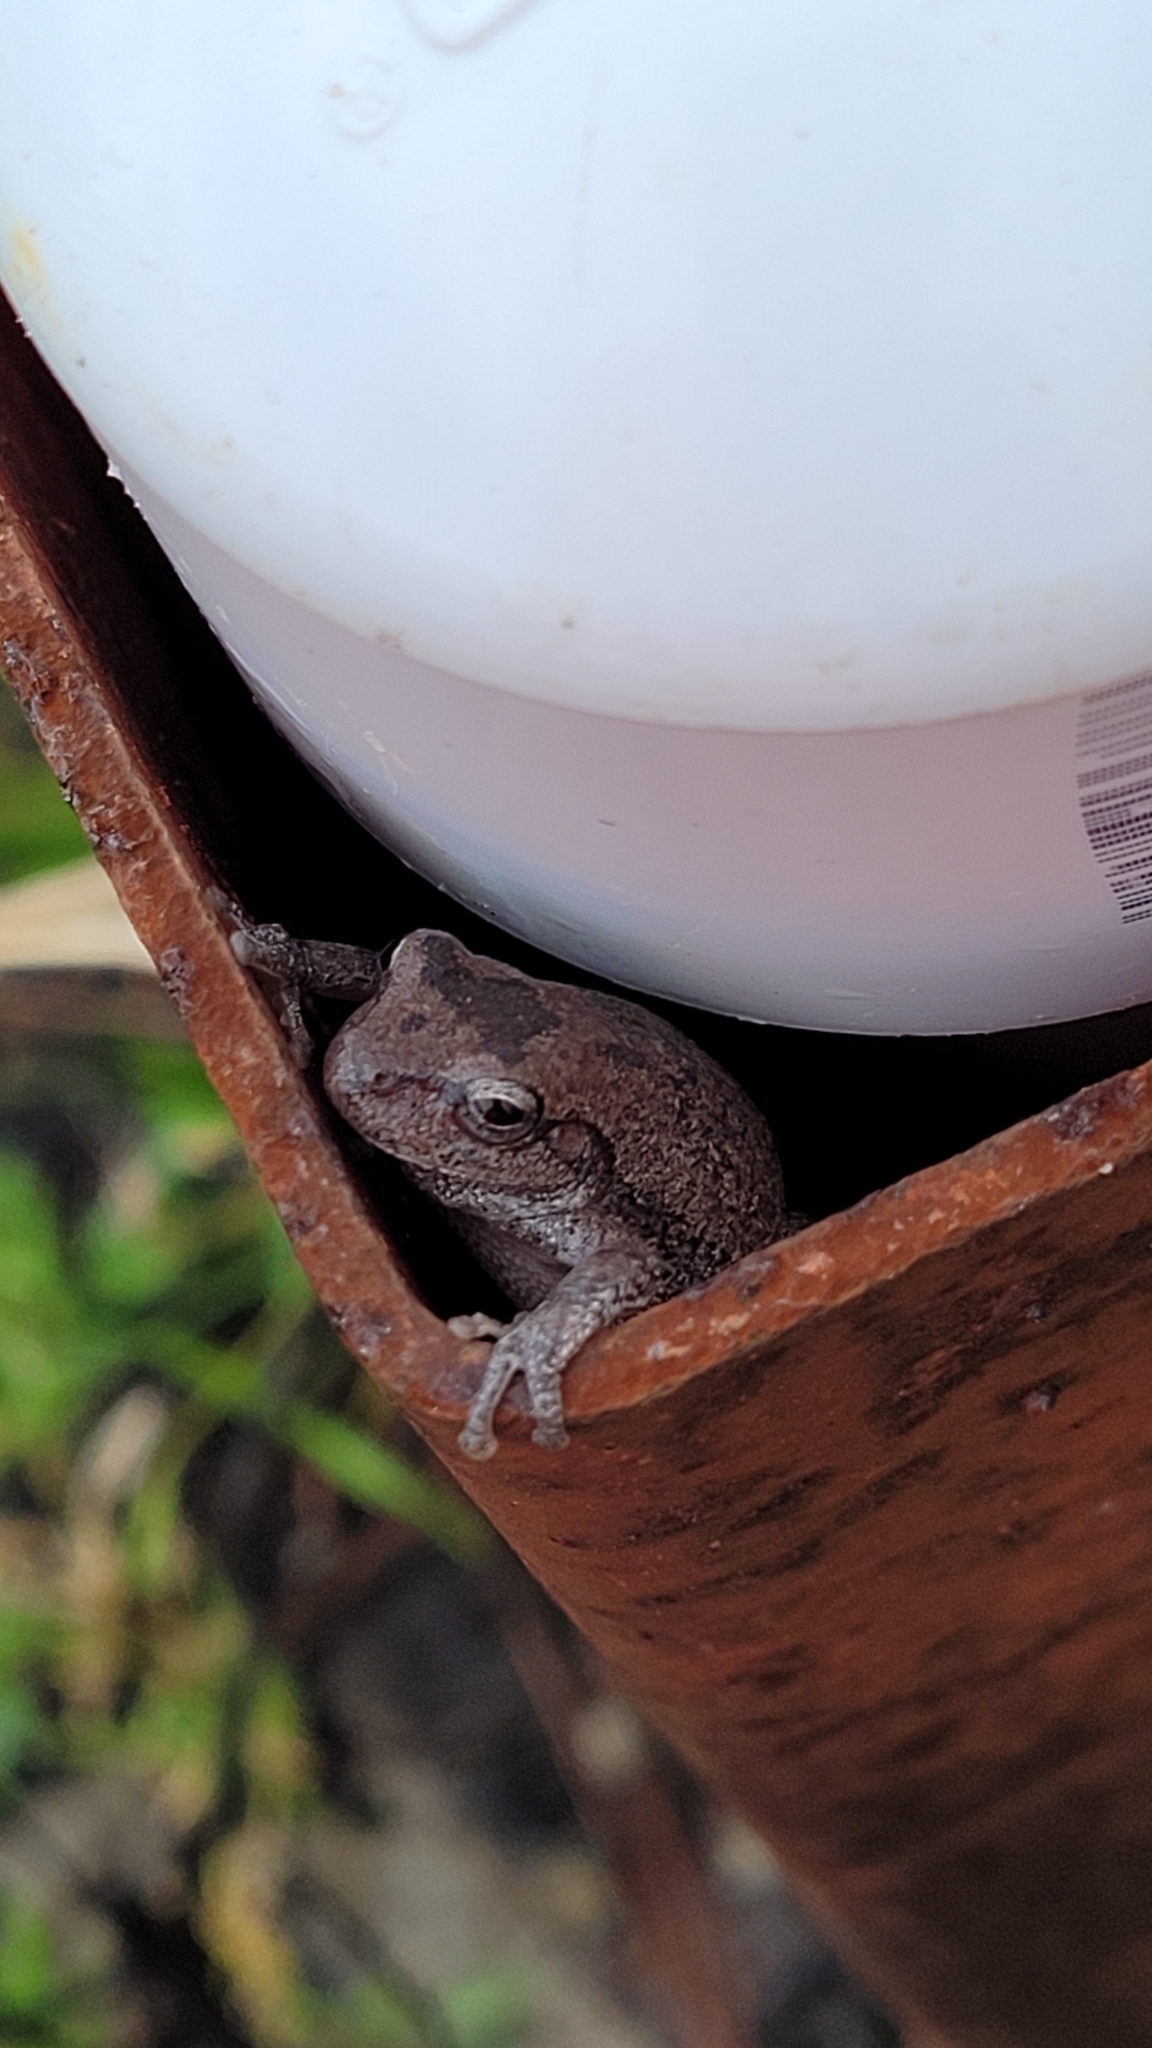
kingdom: Animalia
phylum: Chordata
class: Amphibia
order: Anura
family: Hylidae
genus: Hyla
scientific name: Hyla femoralis
